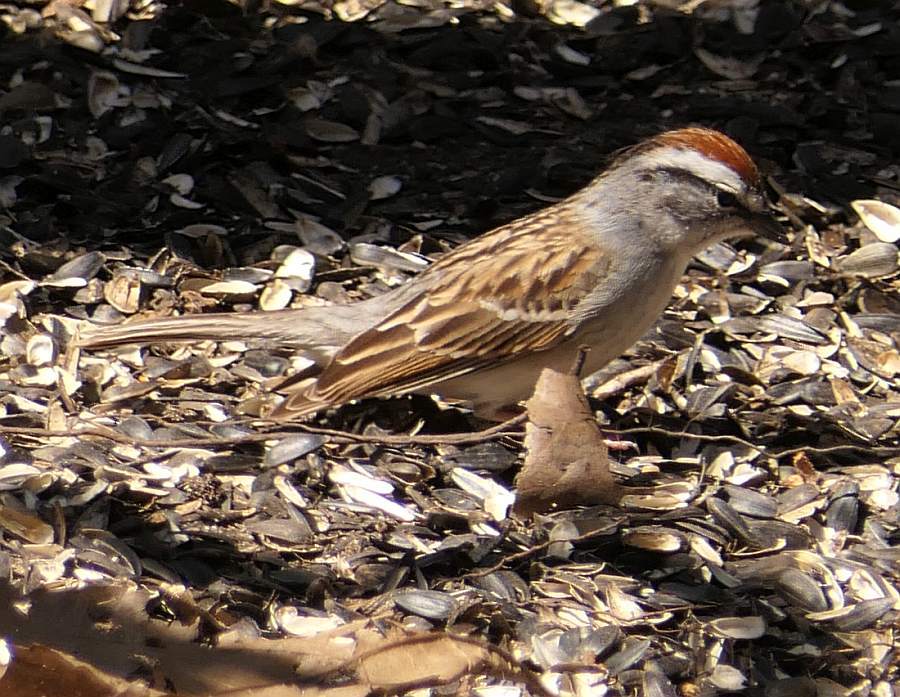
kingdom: Animalia
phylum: Chordata
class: Aves
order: Passeriformes
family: Passerellidae
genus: Spizella
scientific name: Spizella passerina
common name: Chipping sparrow
